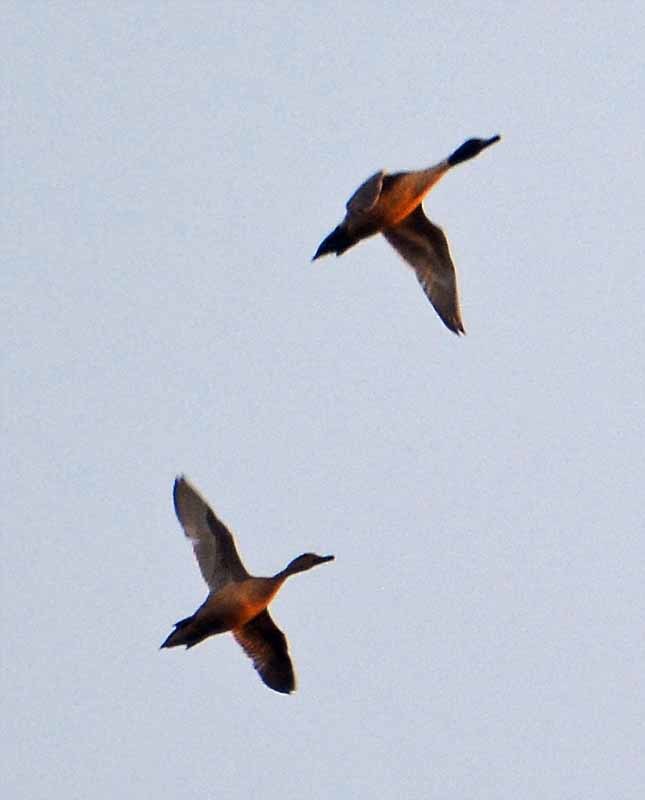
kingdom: Animalia
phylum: Chordata
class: Aves
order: Anseriformes
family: Anatidae
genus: Anas
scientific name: Anas acuta
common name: Northern pintail
